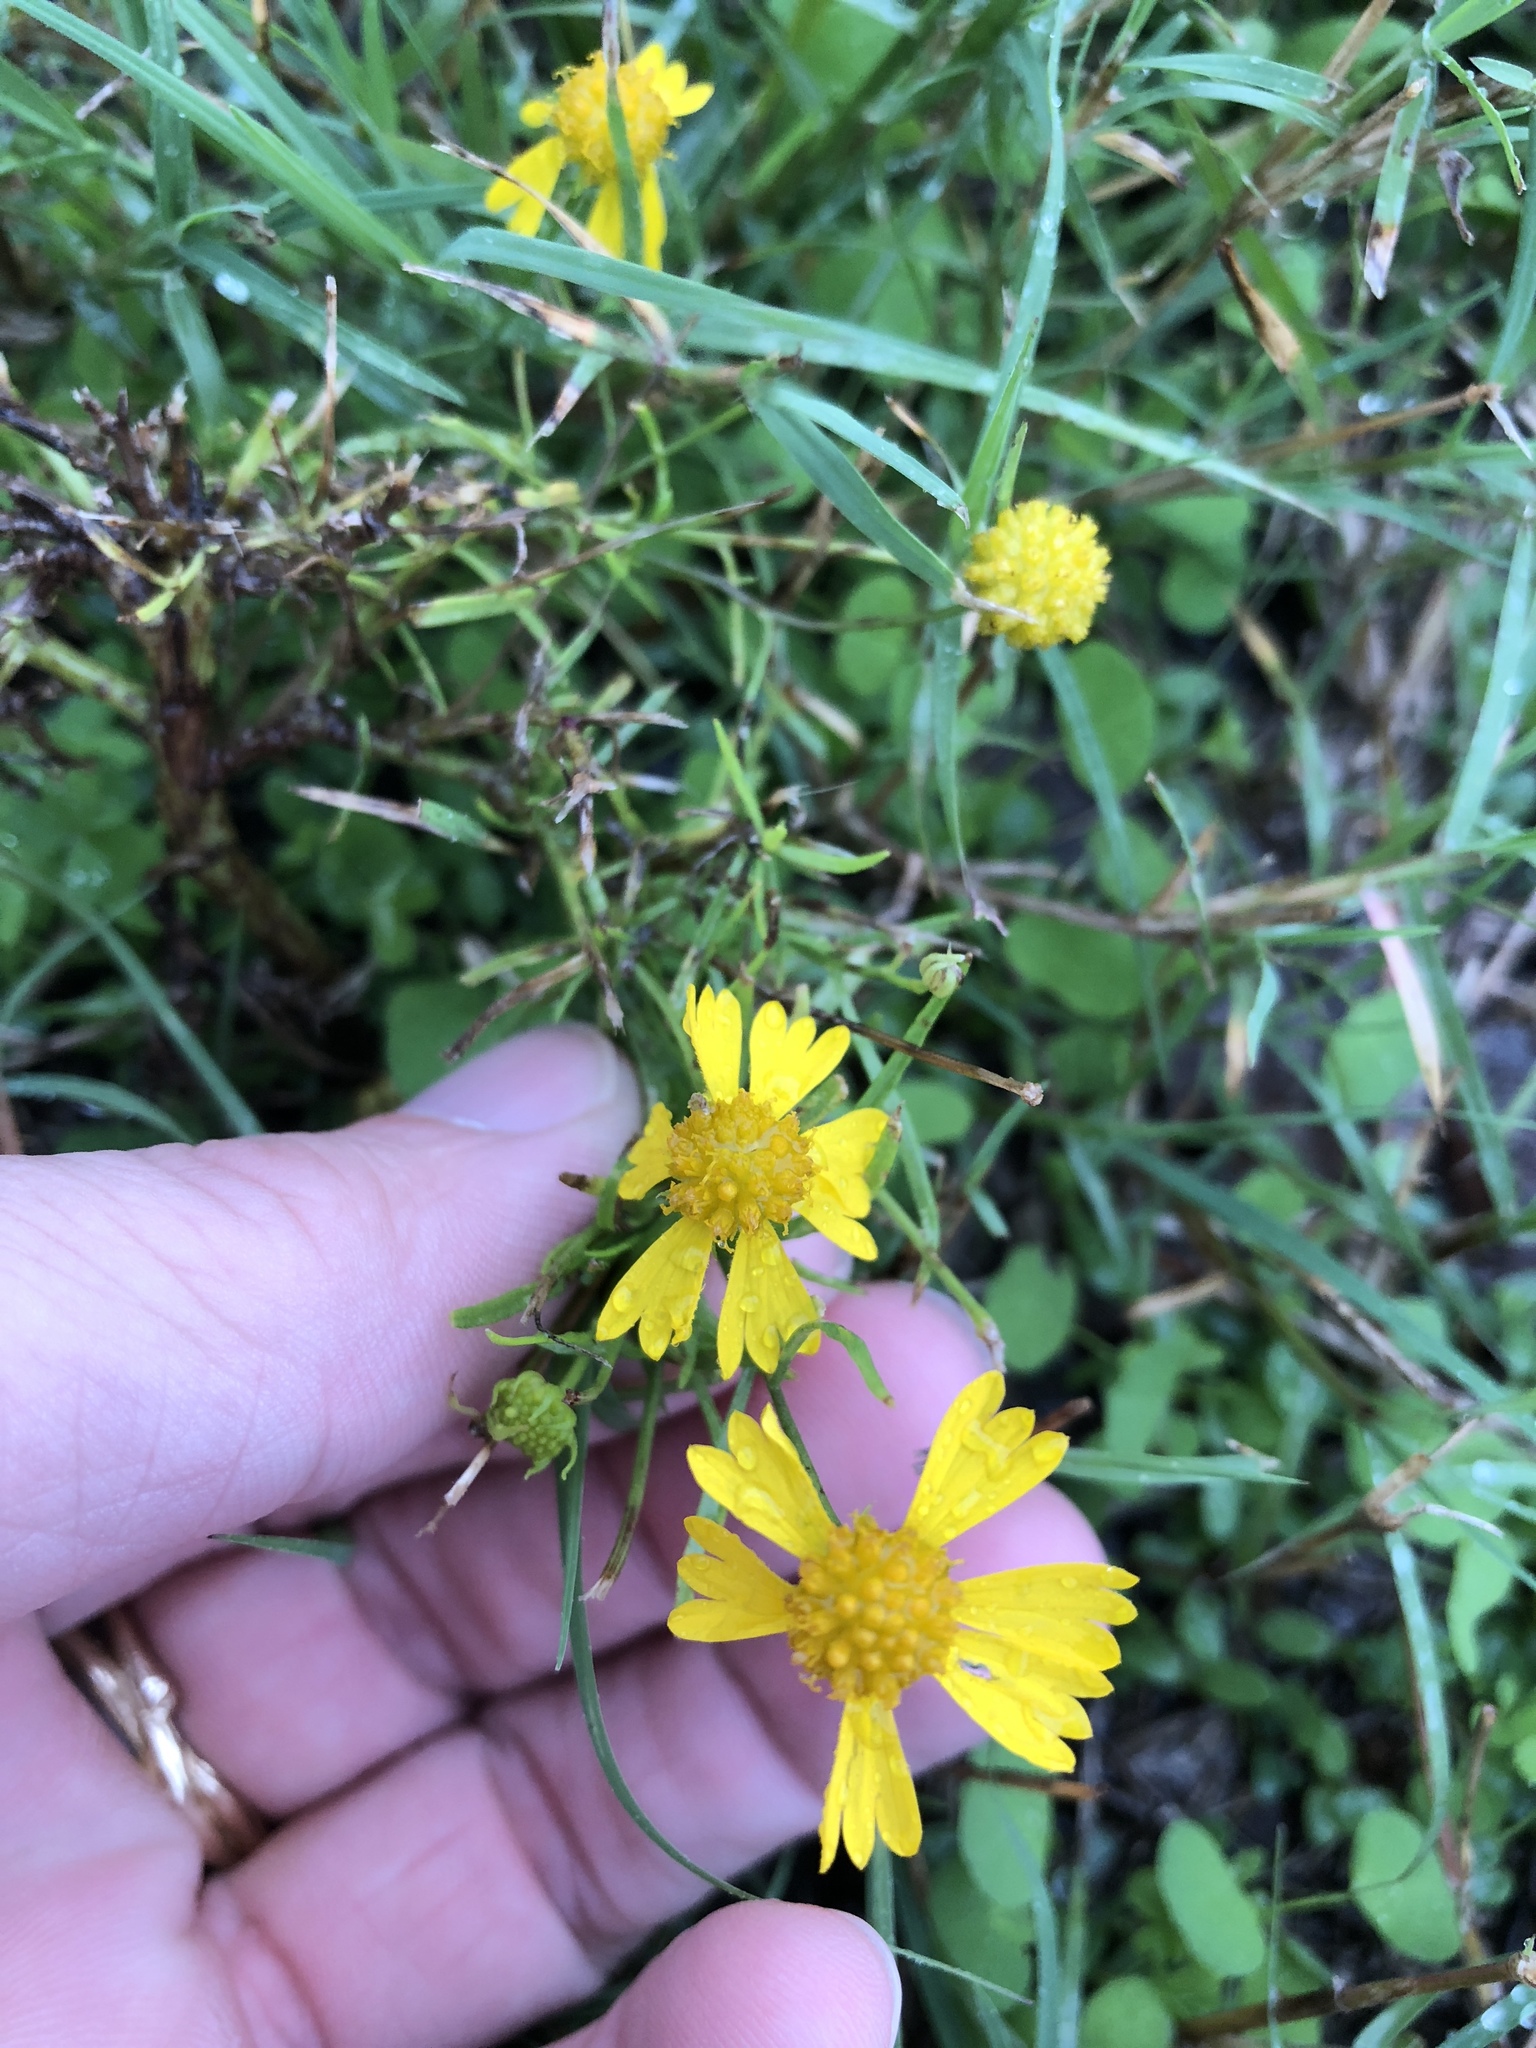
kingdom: Plantae
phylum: Tracheophyta
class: Magnoliopsida
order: Asterales
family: Asteraceae
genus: Helenium
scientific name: Helenium amarum
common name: Bitter sneezeweed
